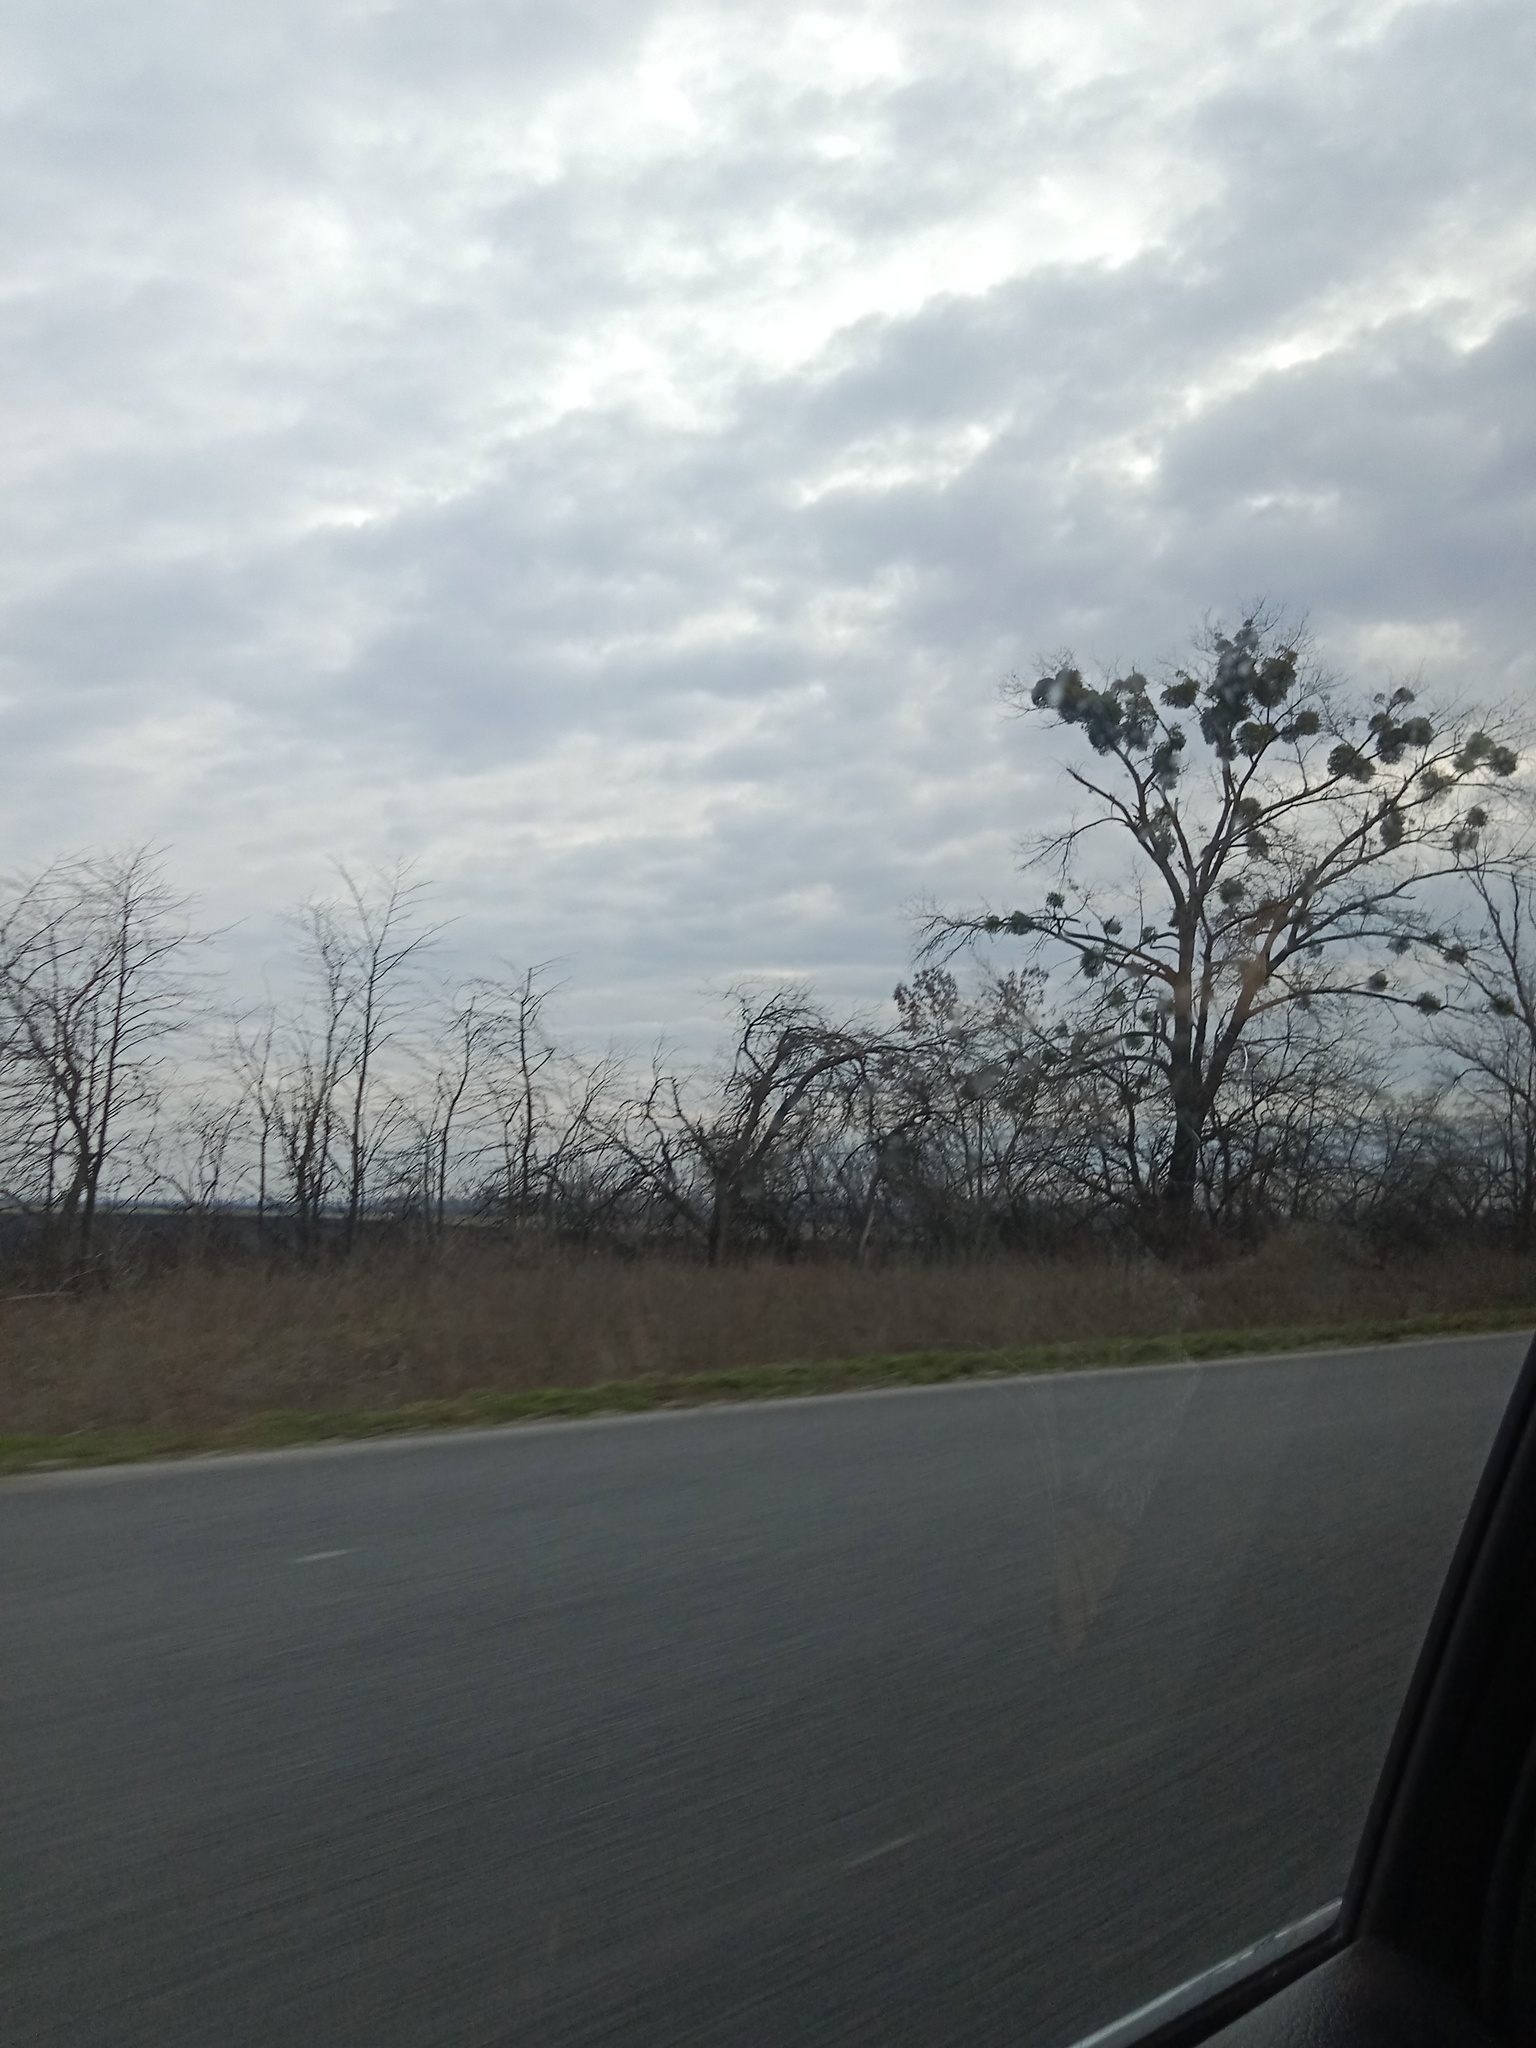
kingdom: Plantae
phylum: Tracheophyta
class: Magnoliopsida
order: Santalales
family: Viscaceae
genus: Viscum
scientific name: Viscum album
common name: Mistletoe
